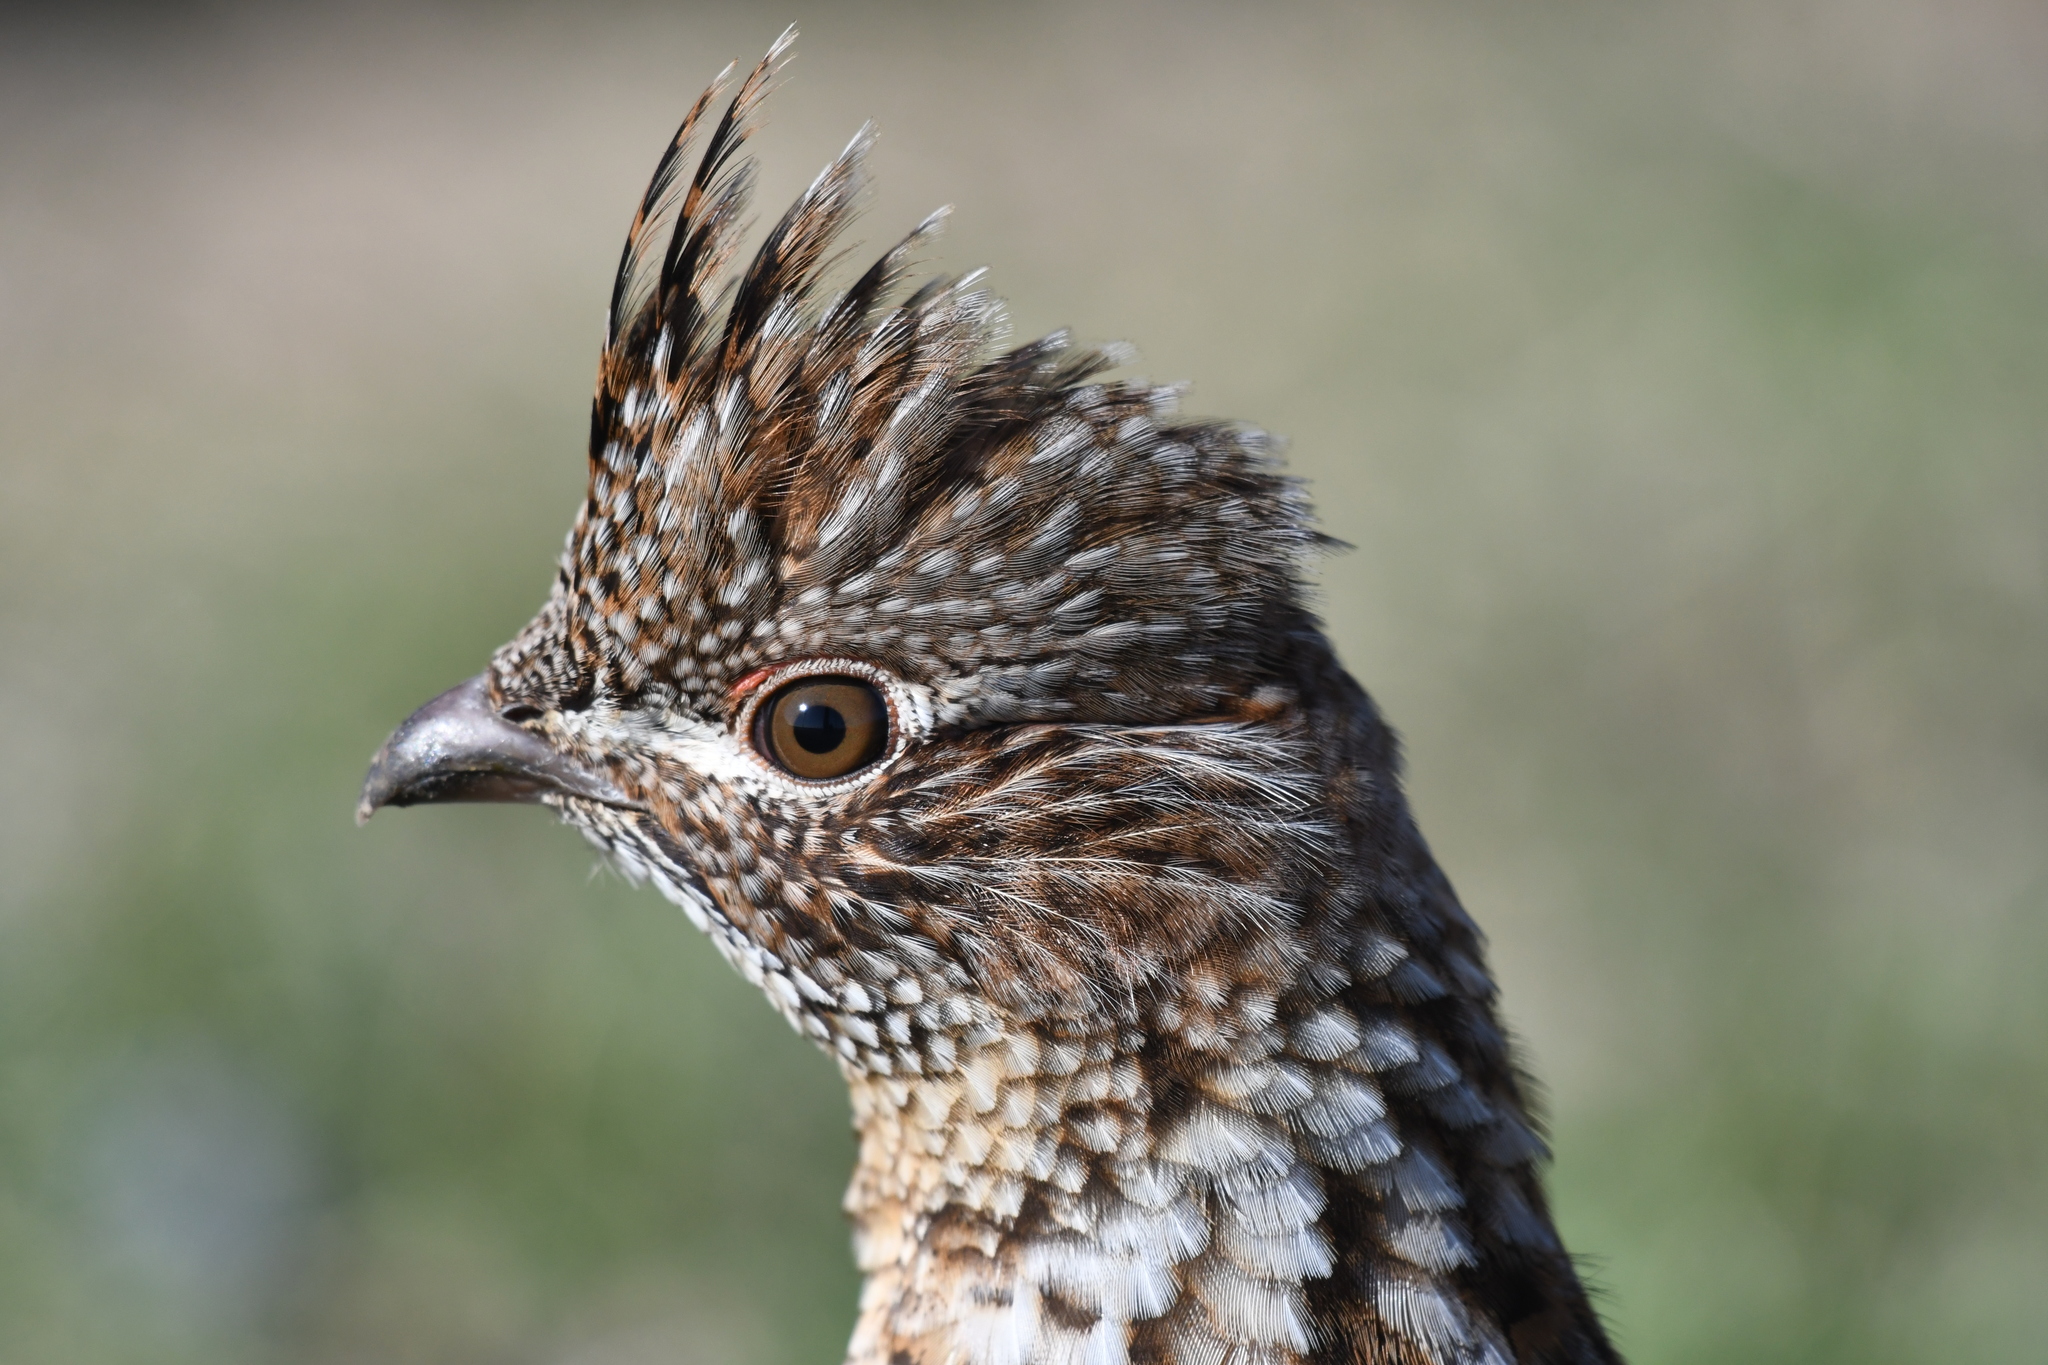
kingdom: Animalia
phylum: Chordata
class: Aves
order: Galliformes
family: Phasianidae
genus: Bonasa
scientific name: Bonasa umbellus
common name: Ruffed grouse
